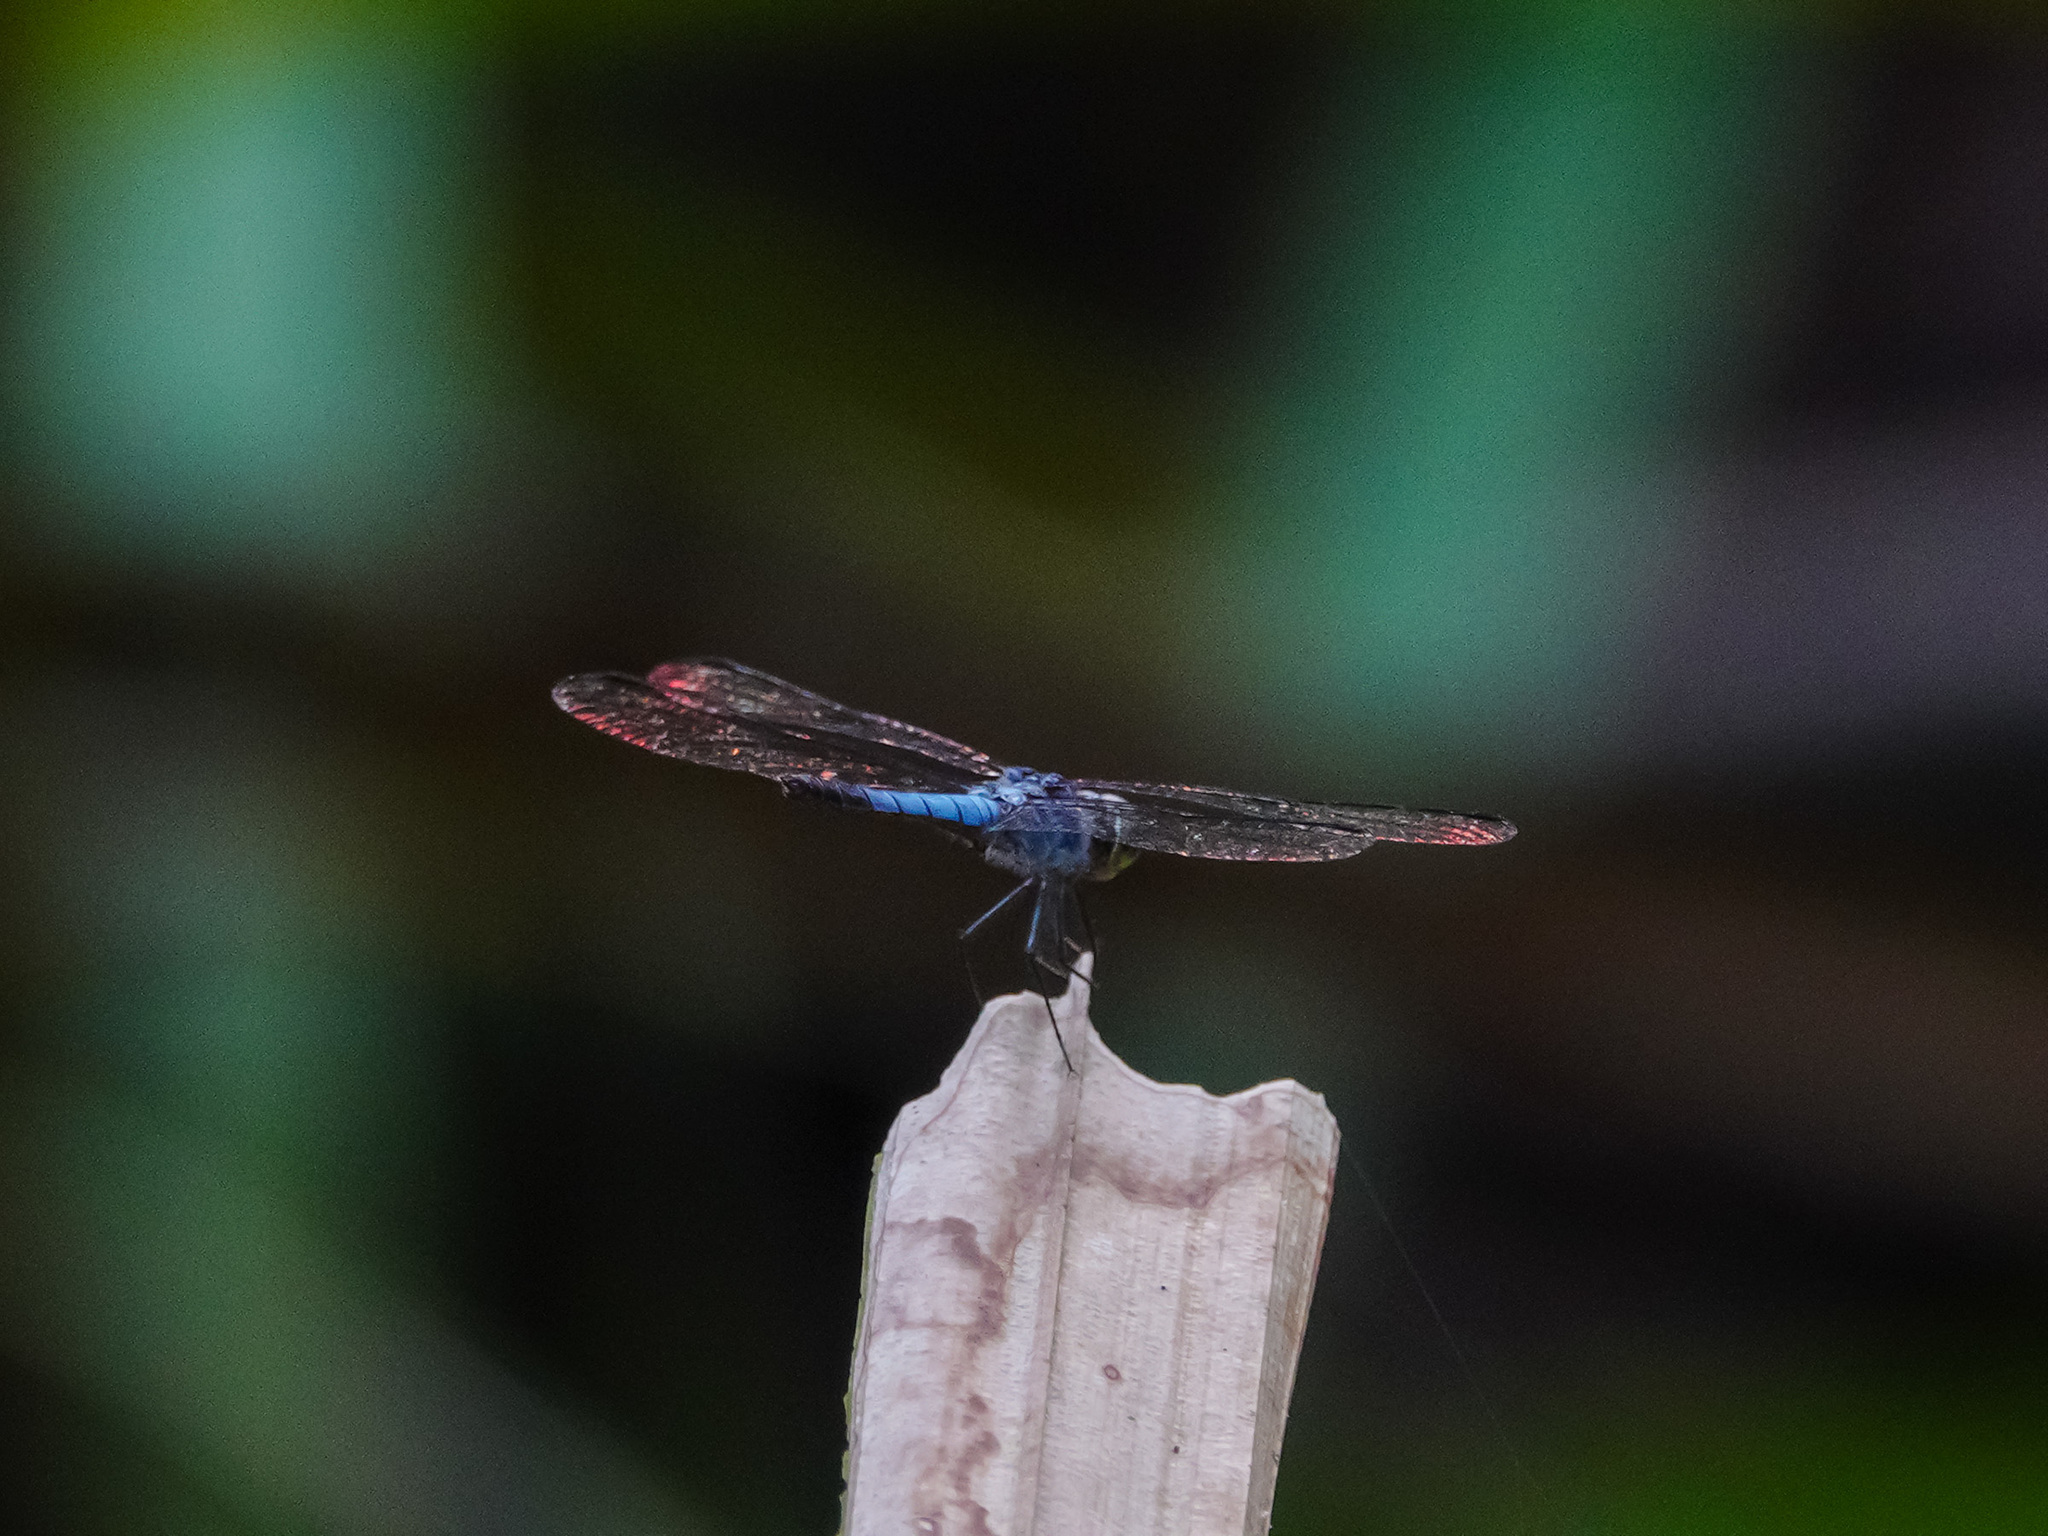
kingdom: Animalia
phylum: Arthropoda
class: Insecta
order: Odonata
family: Libellulidae
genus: Aethriamanta
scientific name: Aethriamanta aethra
